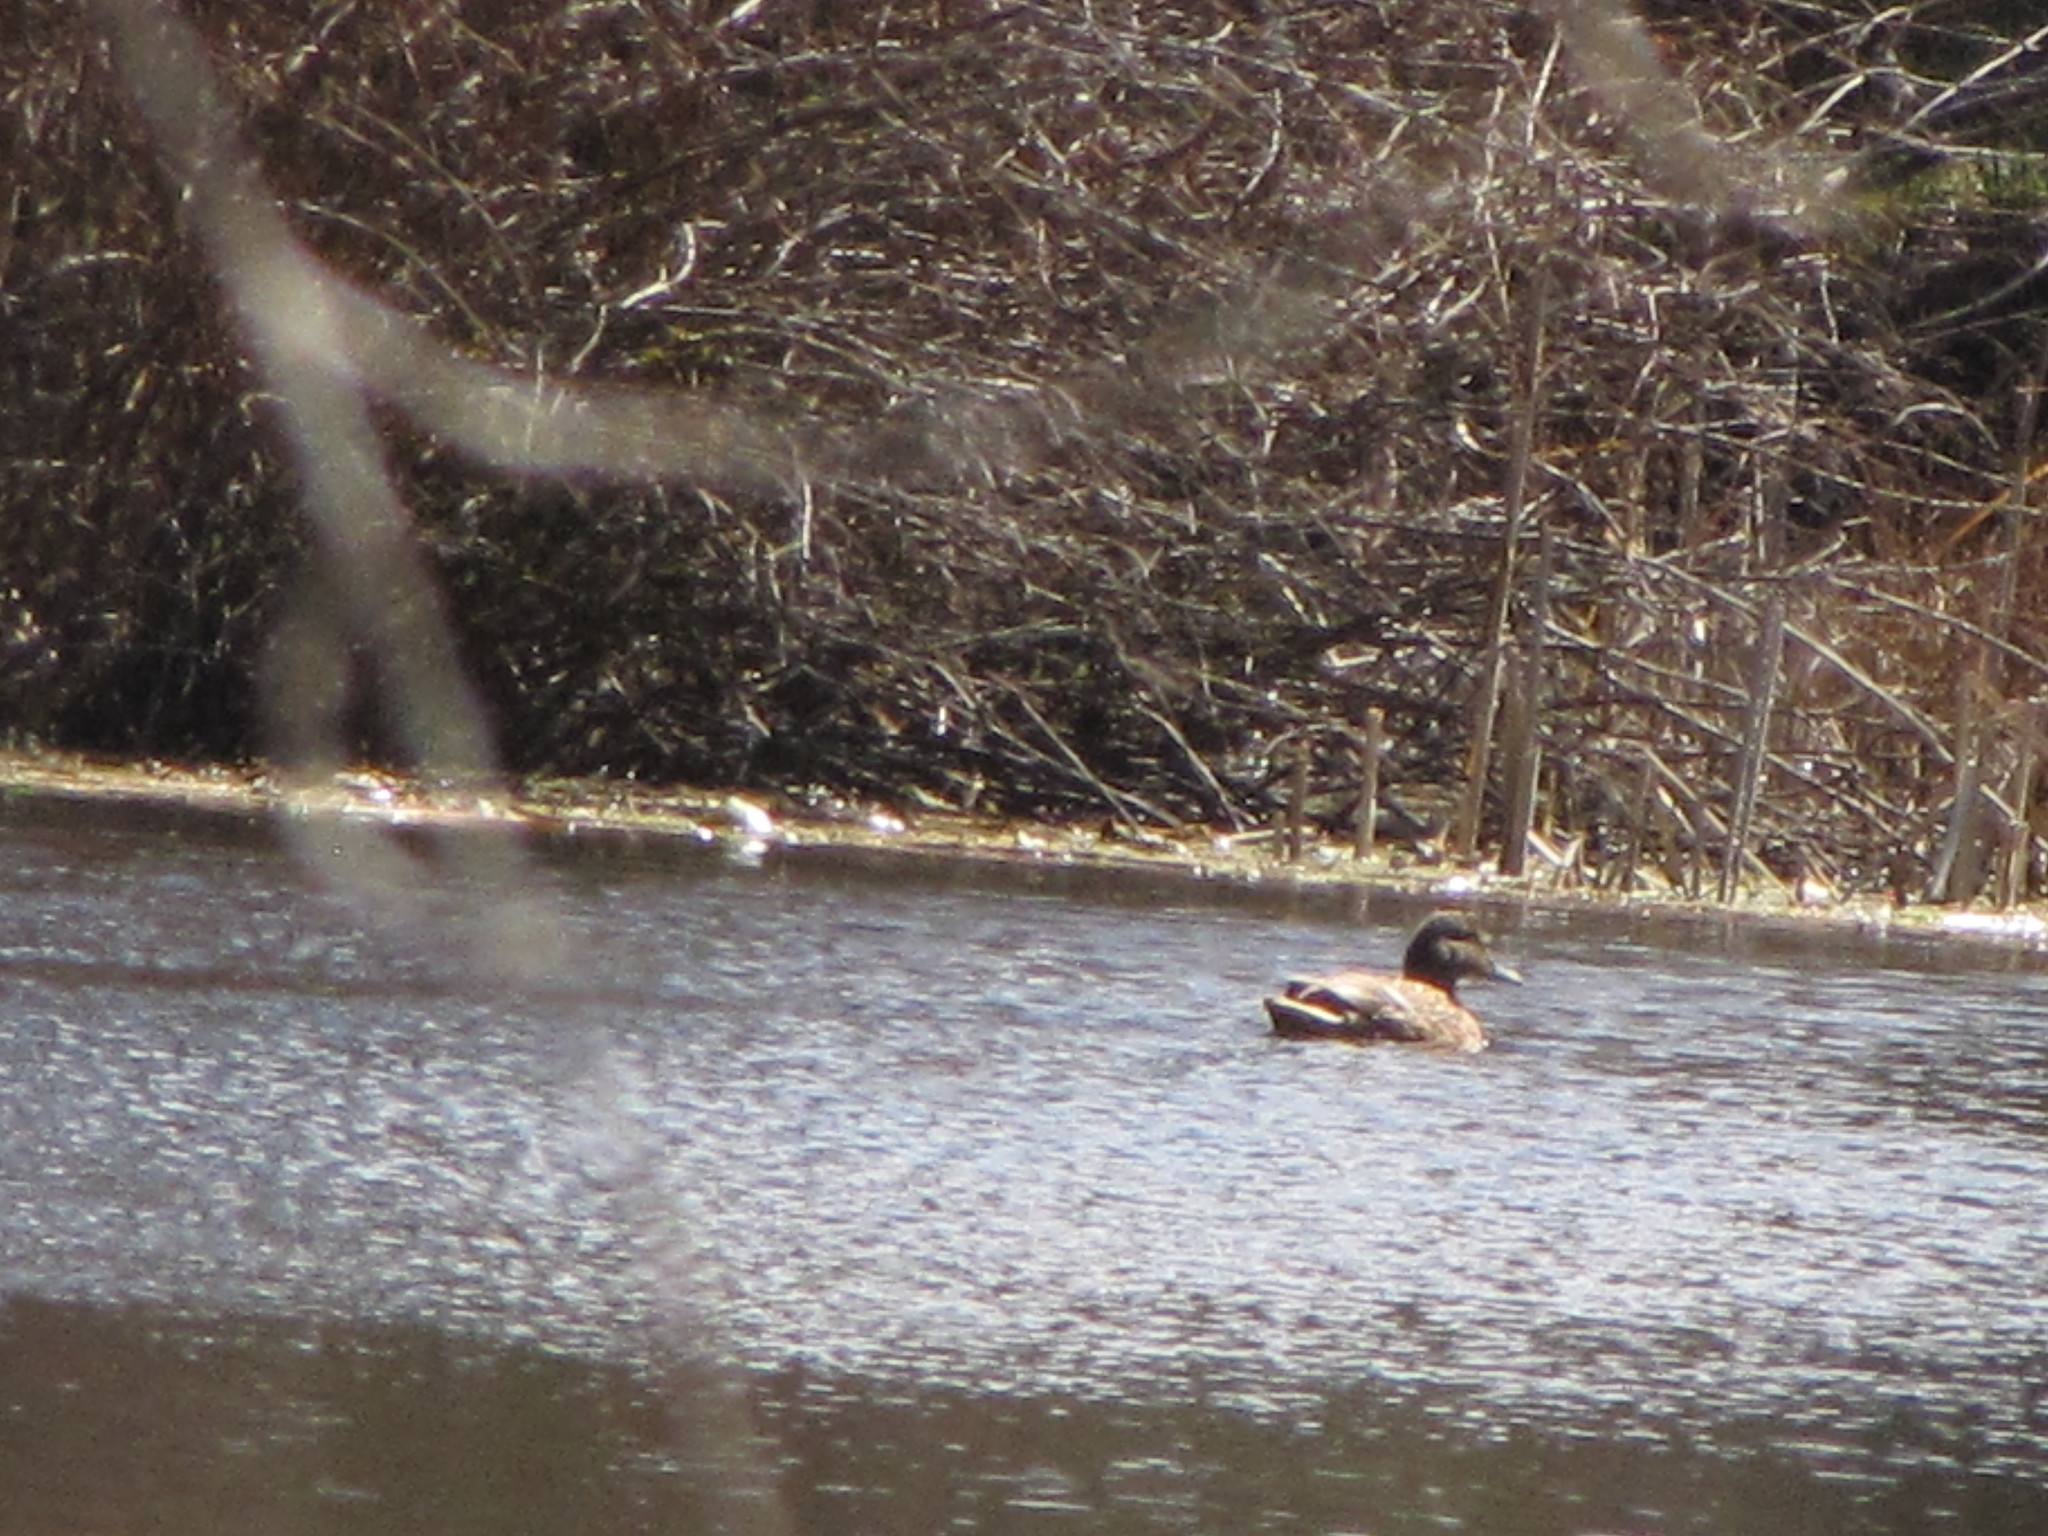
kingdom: Animalia
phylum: Chordata
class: Aves
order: Anseriformes
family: Anatidae
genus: Anas
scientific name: Anas platyrhynchos
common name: Mallard
